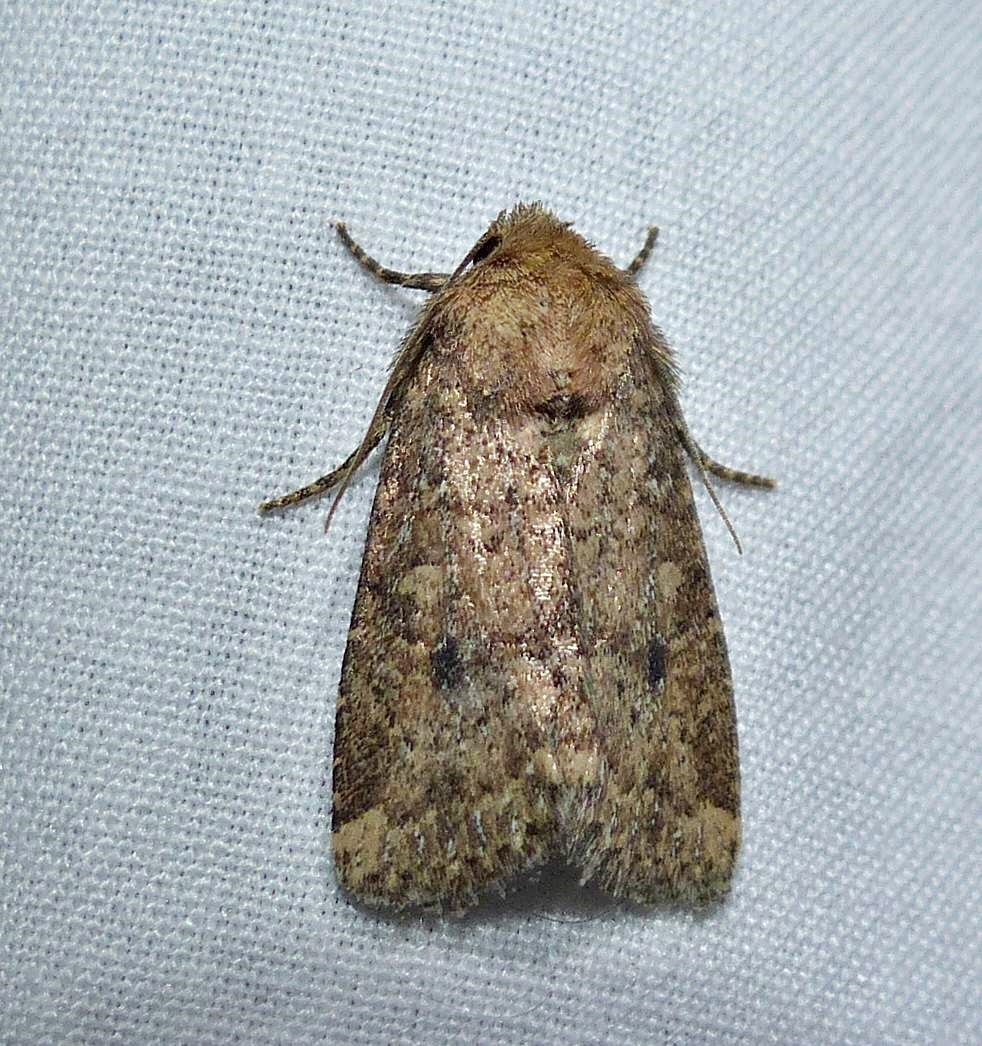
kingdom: Animalia
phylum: Arthropoda
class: Insecta
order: Lepidoptera
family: Noctuidae
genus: Homorthodes
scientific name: Homorthodes furfurata
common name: Northern scurfy quaker
